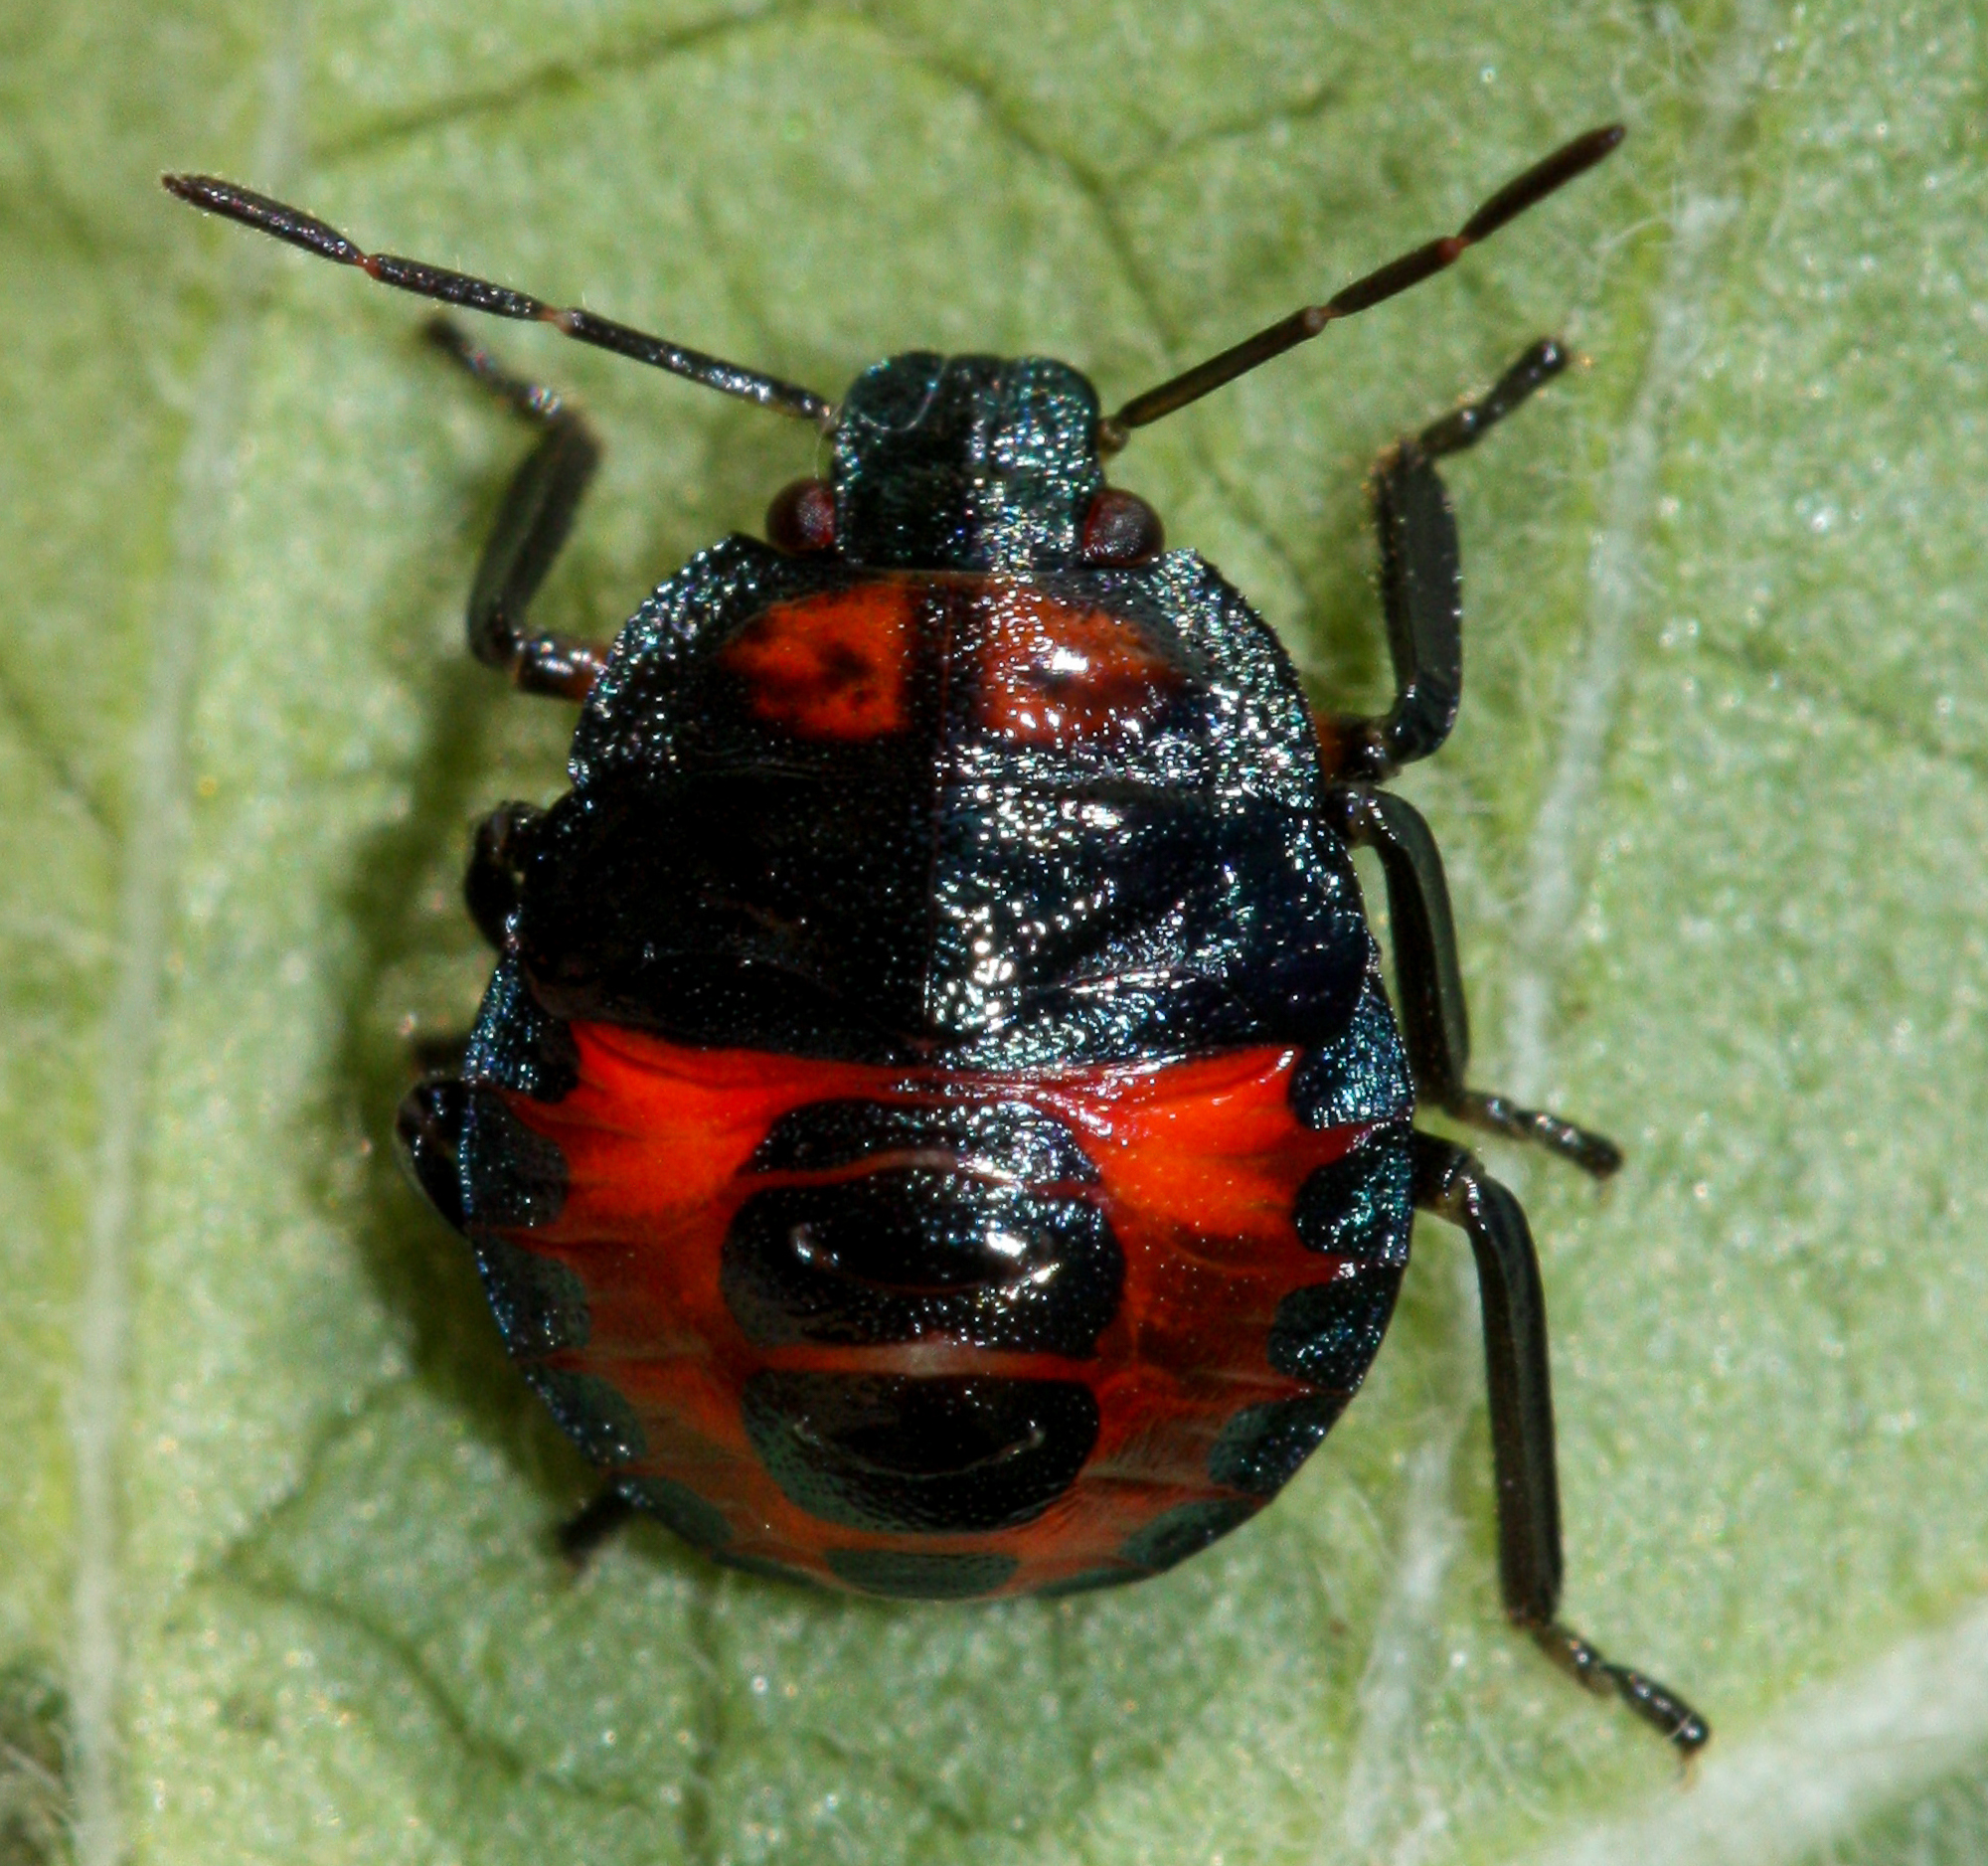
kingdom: Animalia
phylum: Arthropoda
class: Insecta
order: Hemiptera
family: Pentatomidae
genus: Podisus
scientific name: Podisus sagitta
